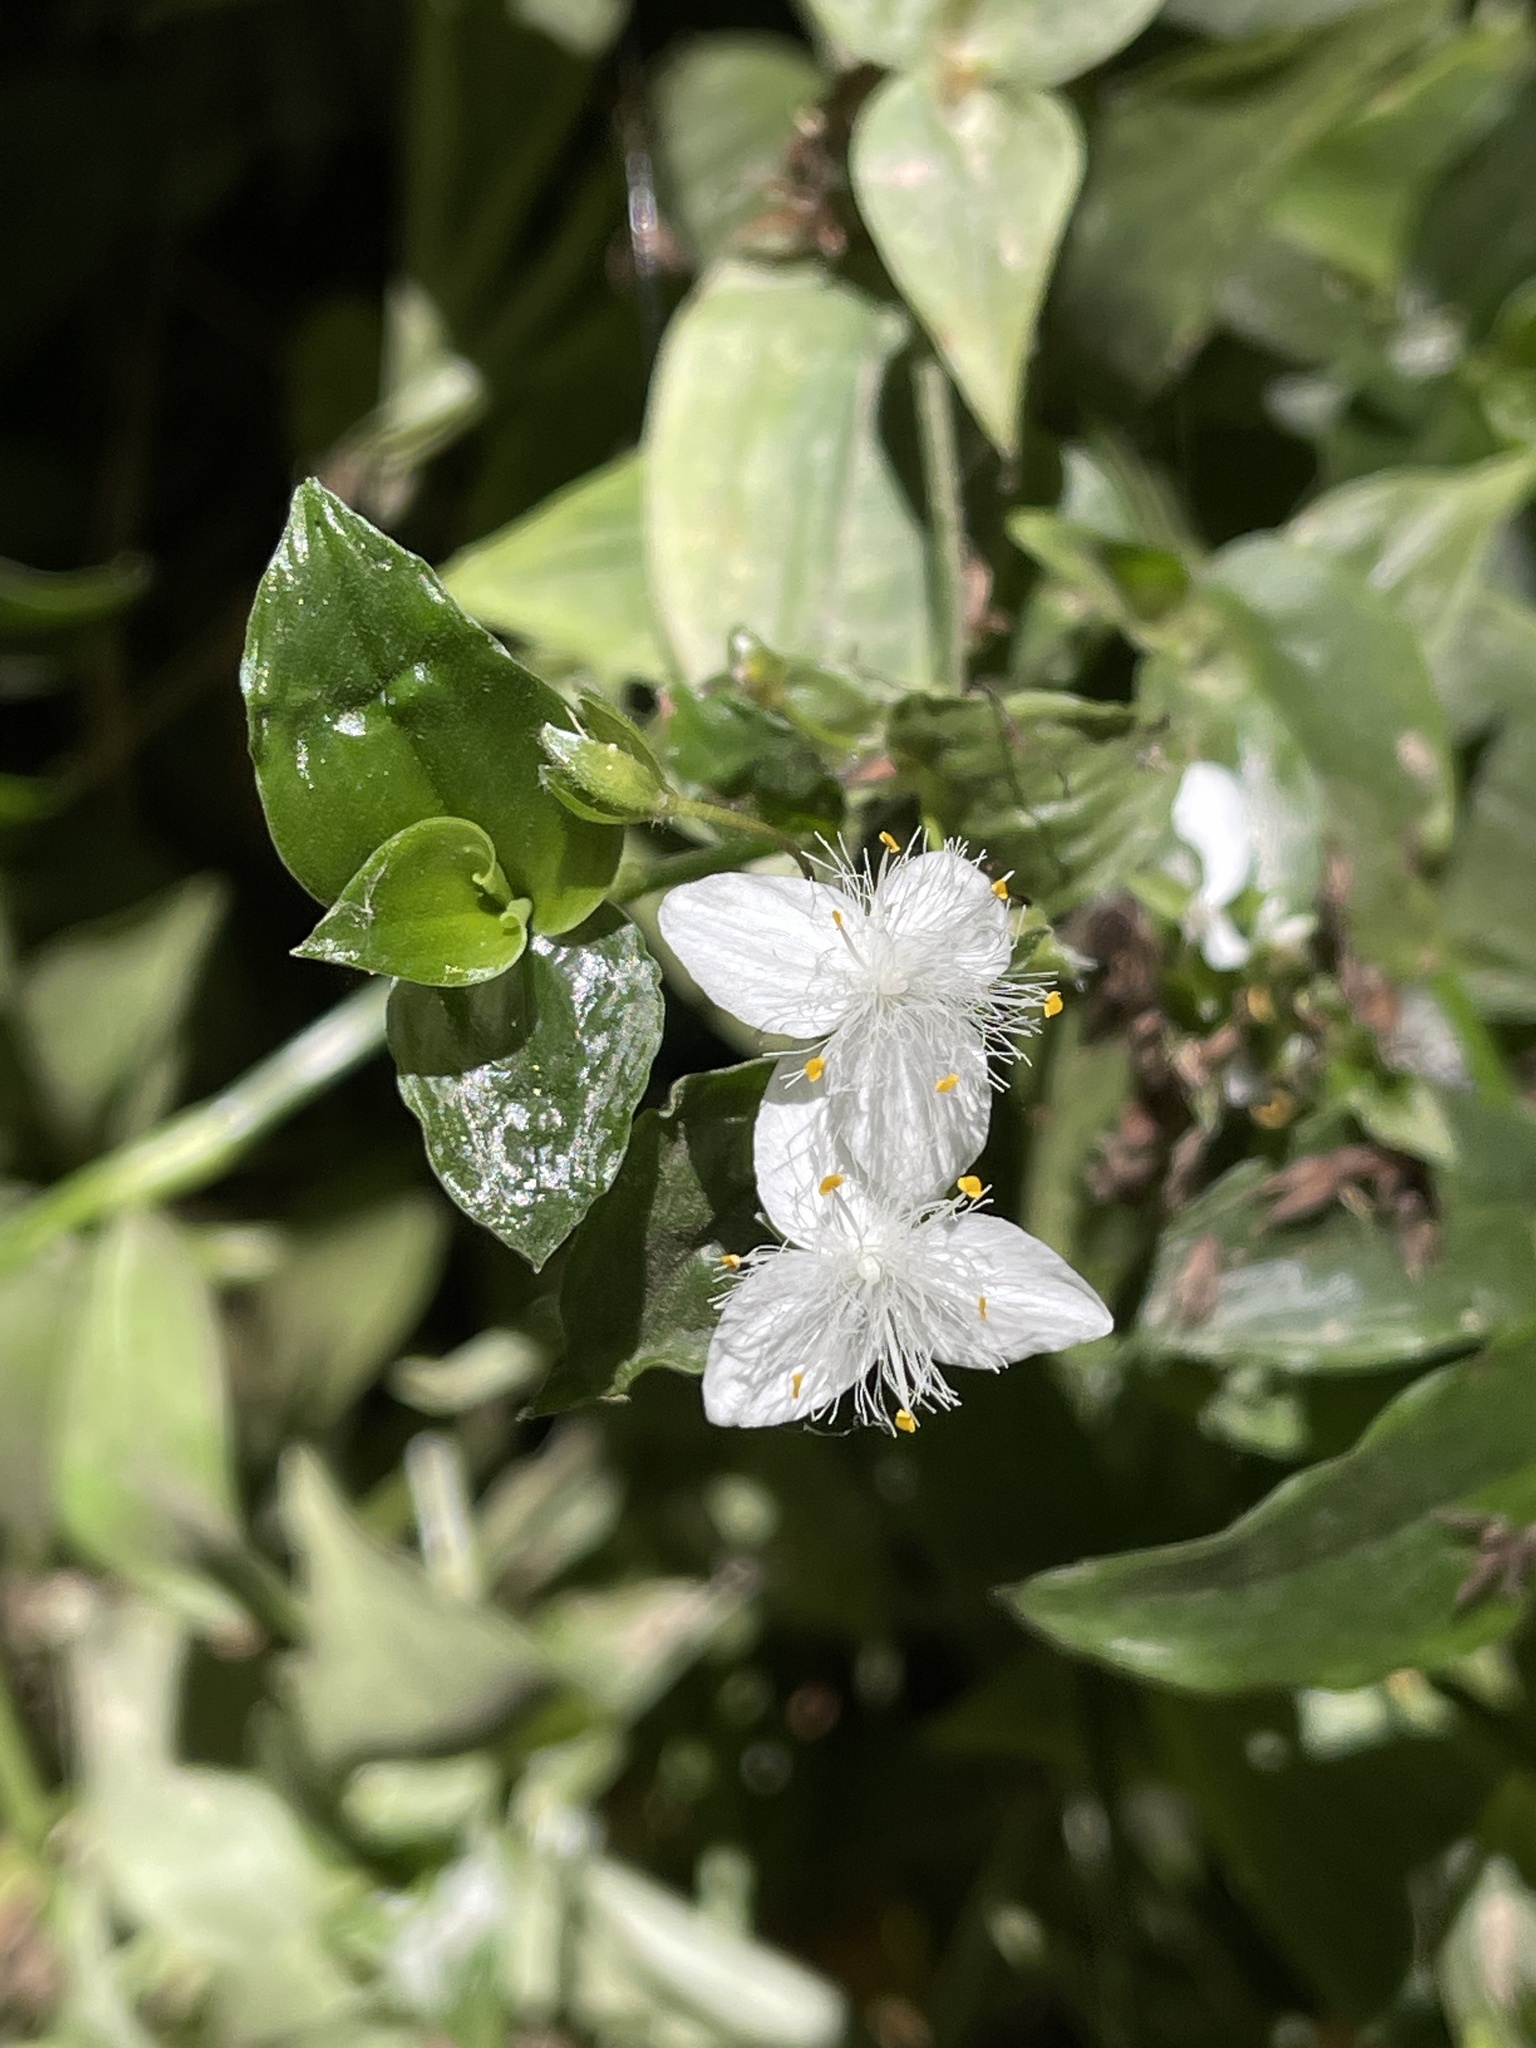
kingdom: Plantae
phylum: Tracheophyta
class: Liliopsida
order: Commelinales
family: Commelinaceae
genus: Tradescantia
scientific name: Tradescantia fluminensis
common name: Wandering-jew
